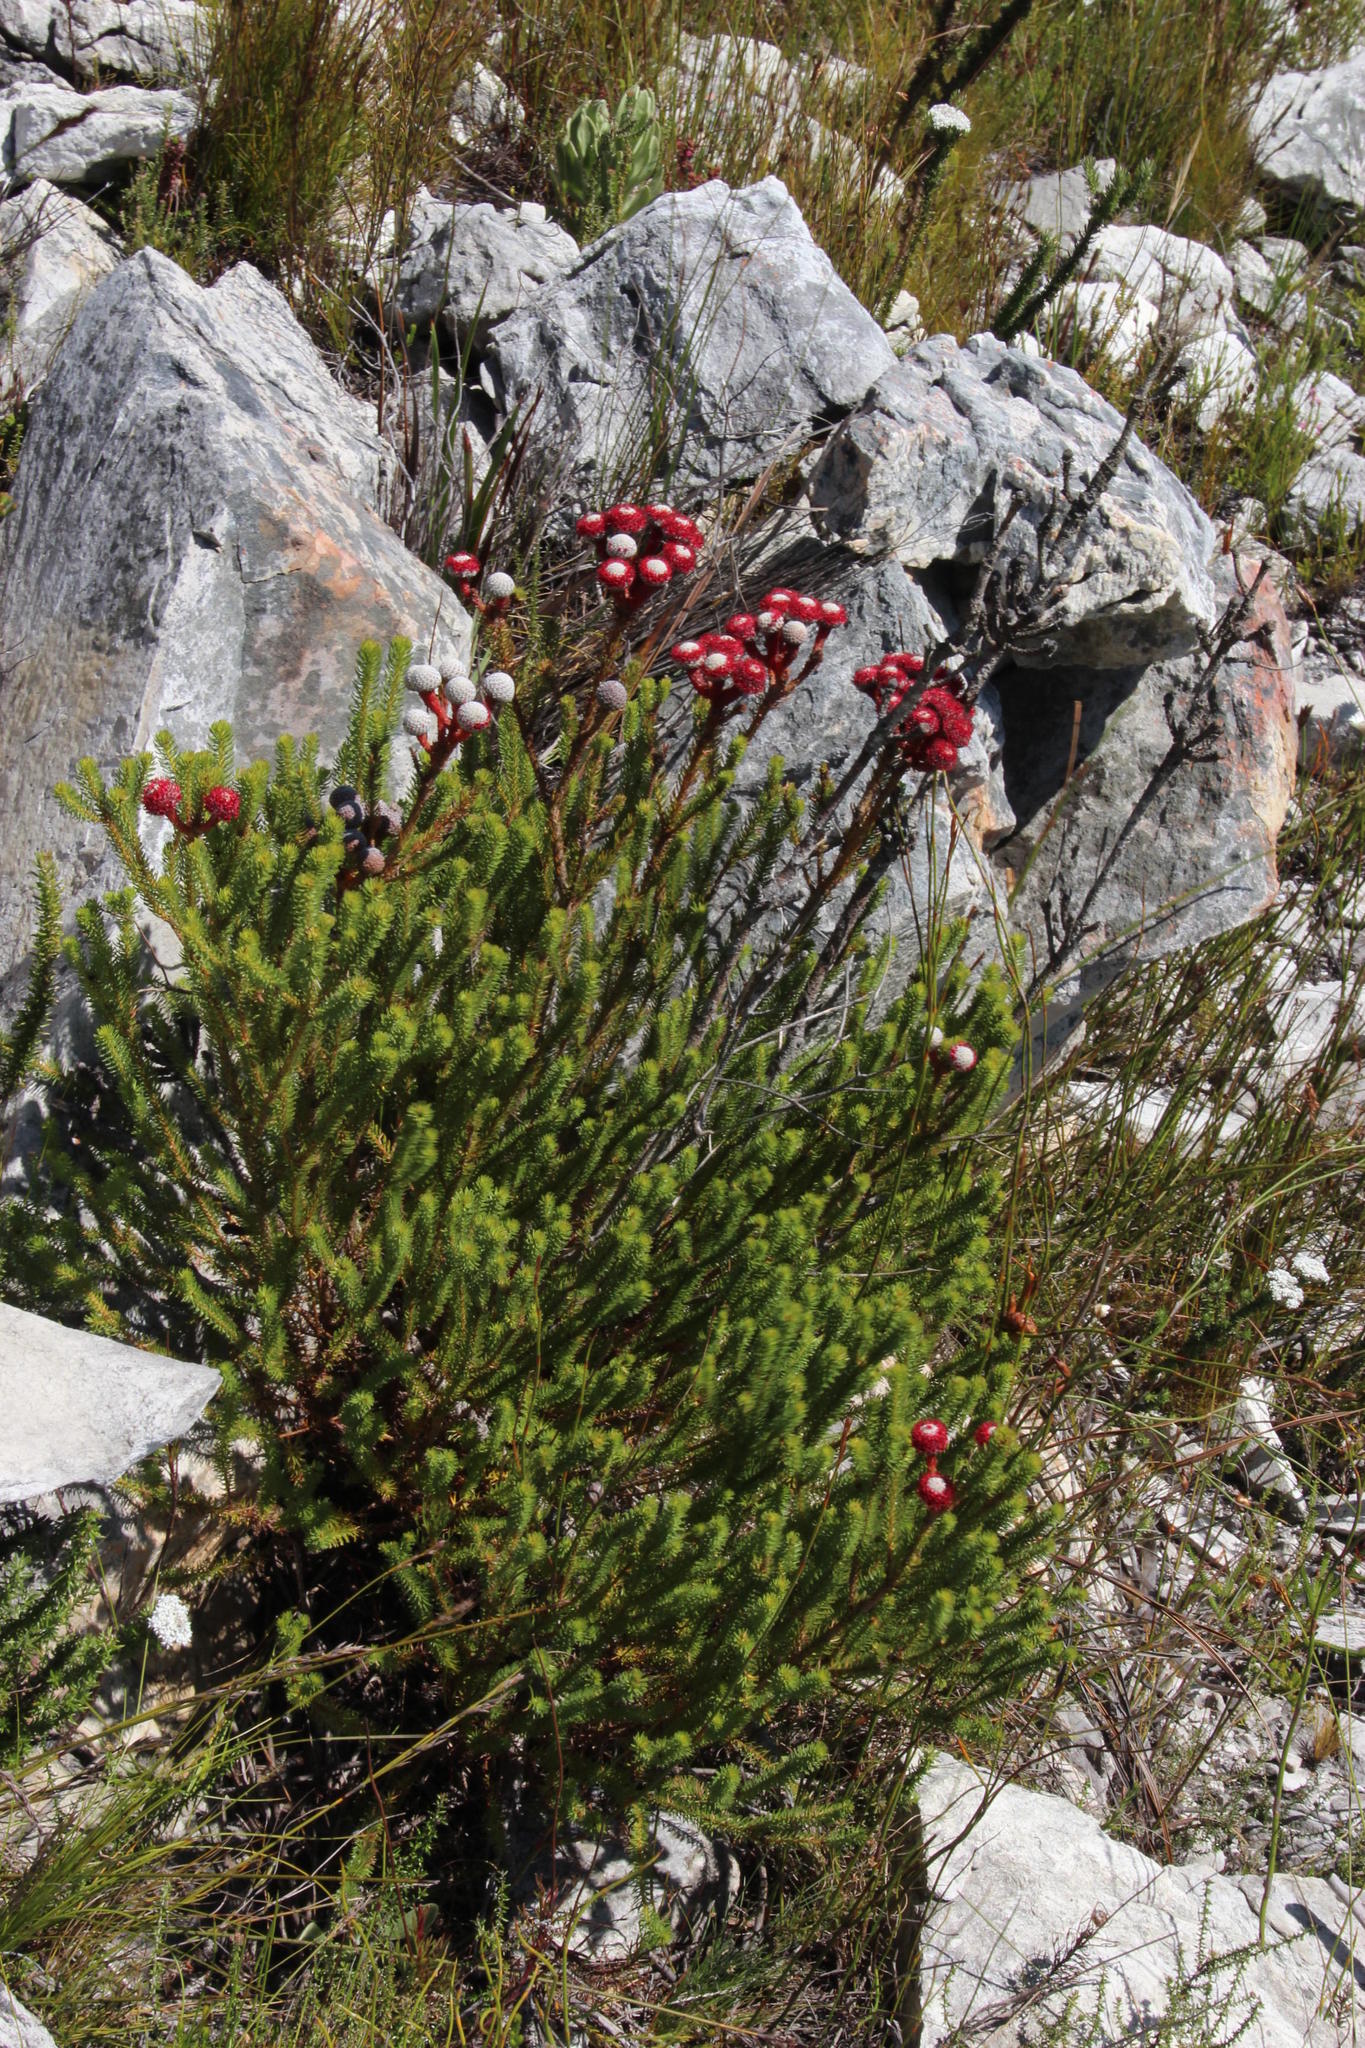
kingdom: Plantae
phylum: Tracheophyta
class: Magnoliopsida
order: Bruniales
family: Bruniaceae
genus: Berzelia
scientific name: Berzelia stokoei
